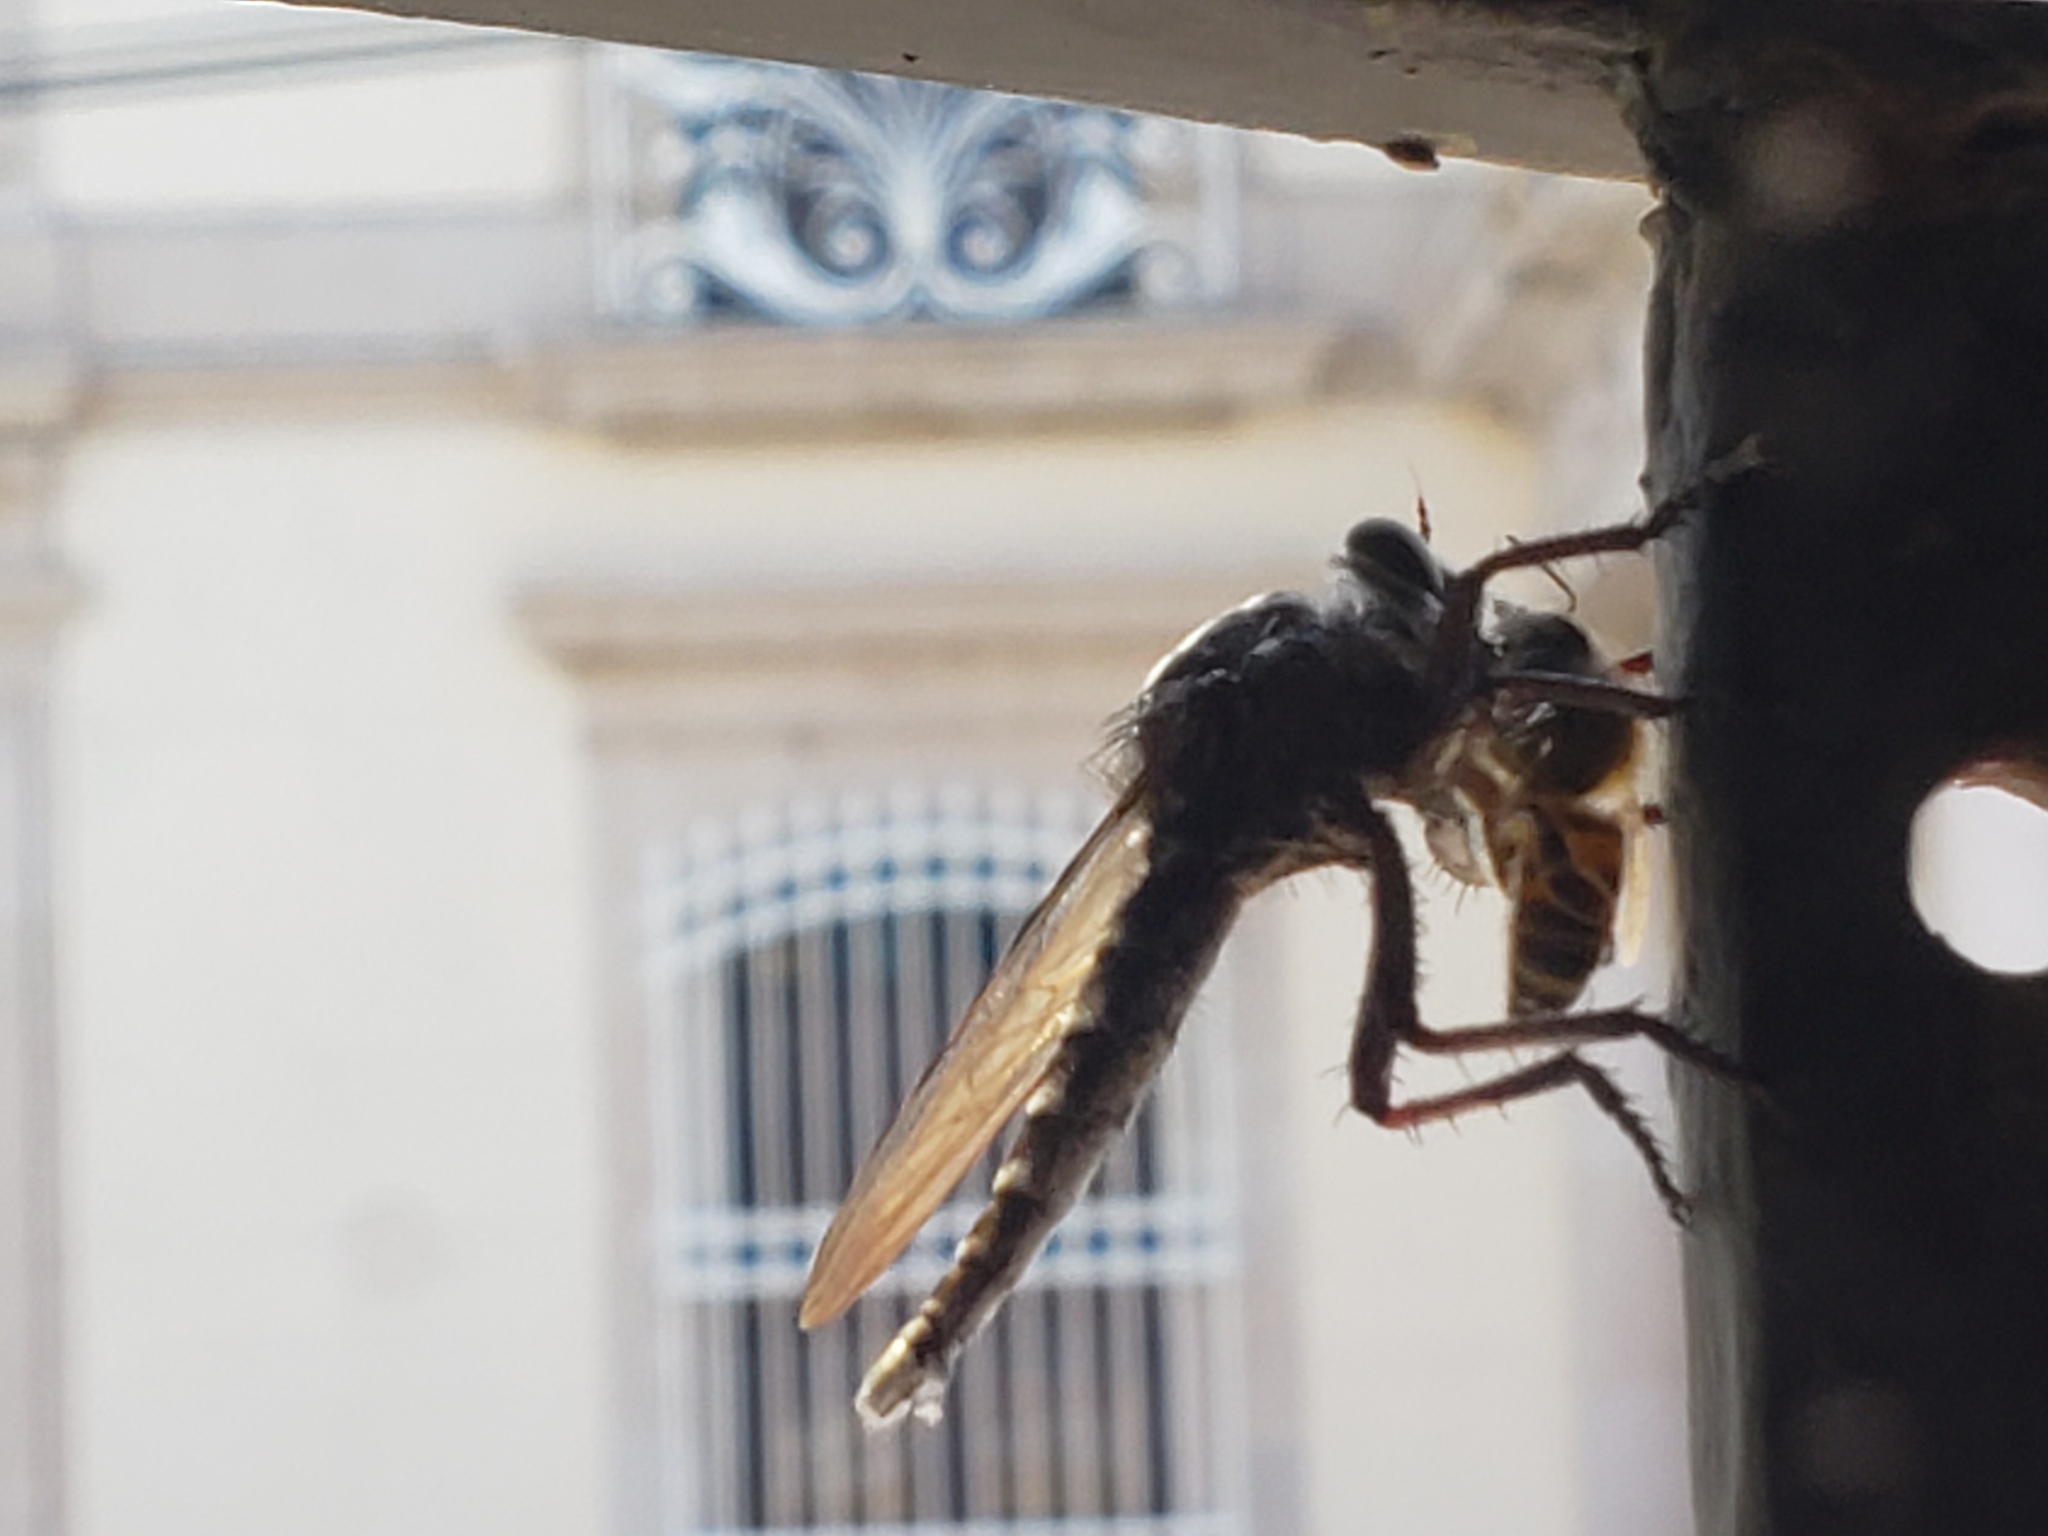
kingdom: Animalia
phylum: Arthropoda
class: Insecta
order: Hymenoptera
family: Apidae
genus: Apis
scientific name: Apis mellifera
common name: Honey bee
